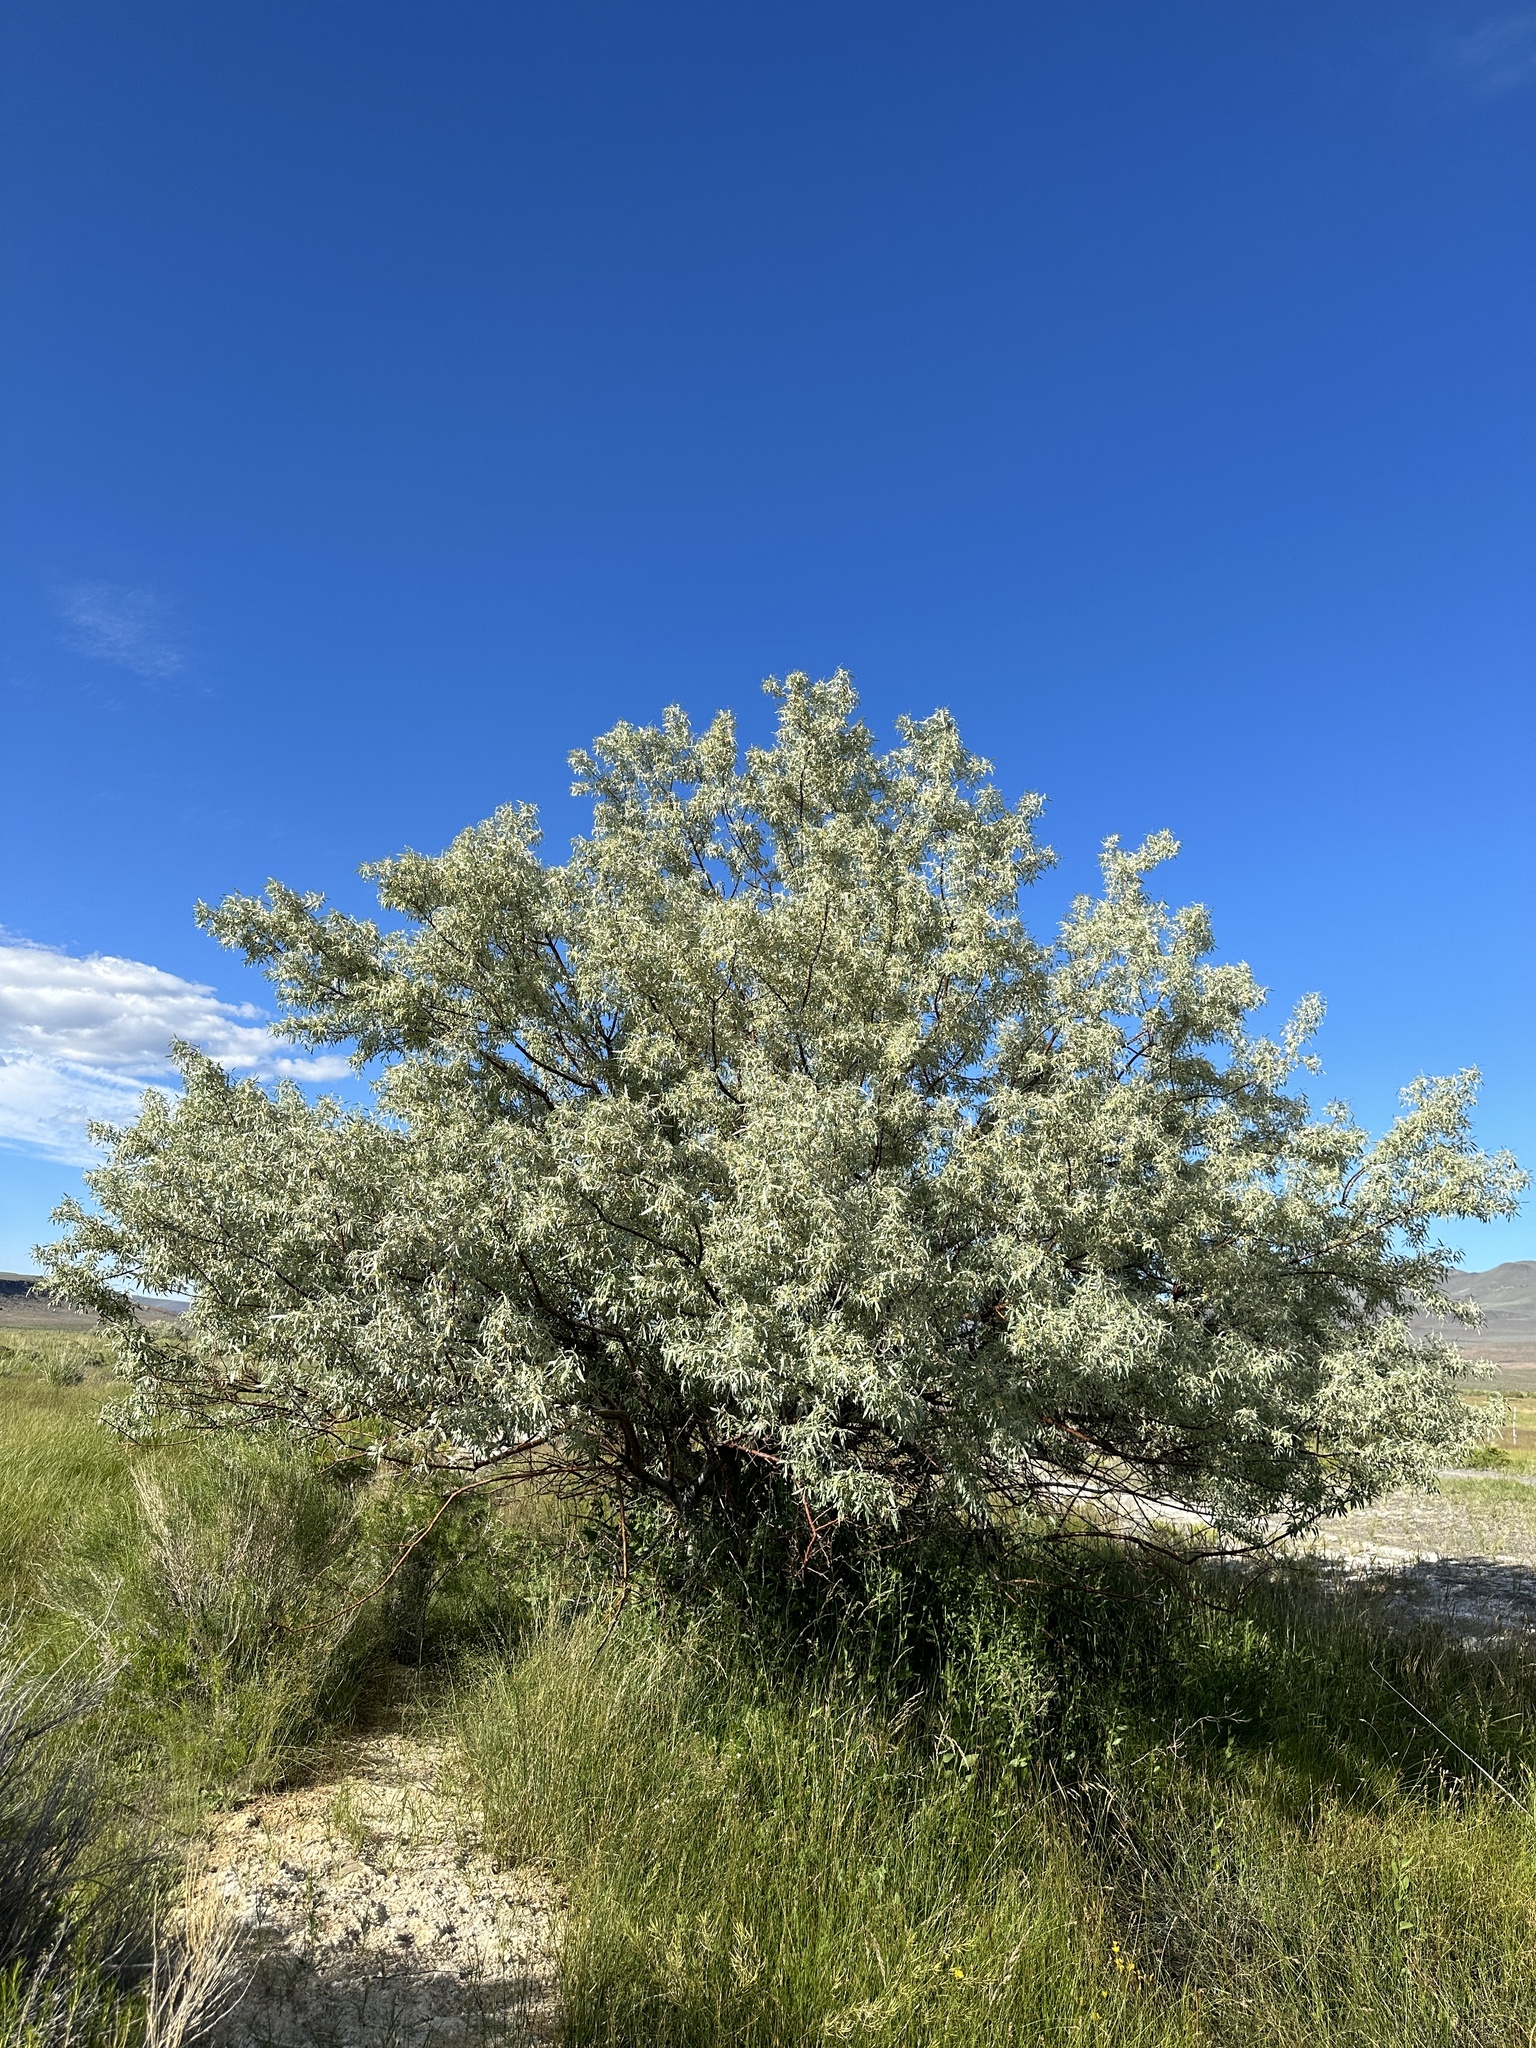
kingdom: Plantae
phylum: Tracheophyta
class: Magnoliopsida
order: Rosales
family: Elaeagnaceae
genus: Elaeagnus
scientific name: Elaeagnus angustifolia
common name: Russian olive
